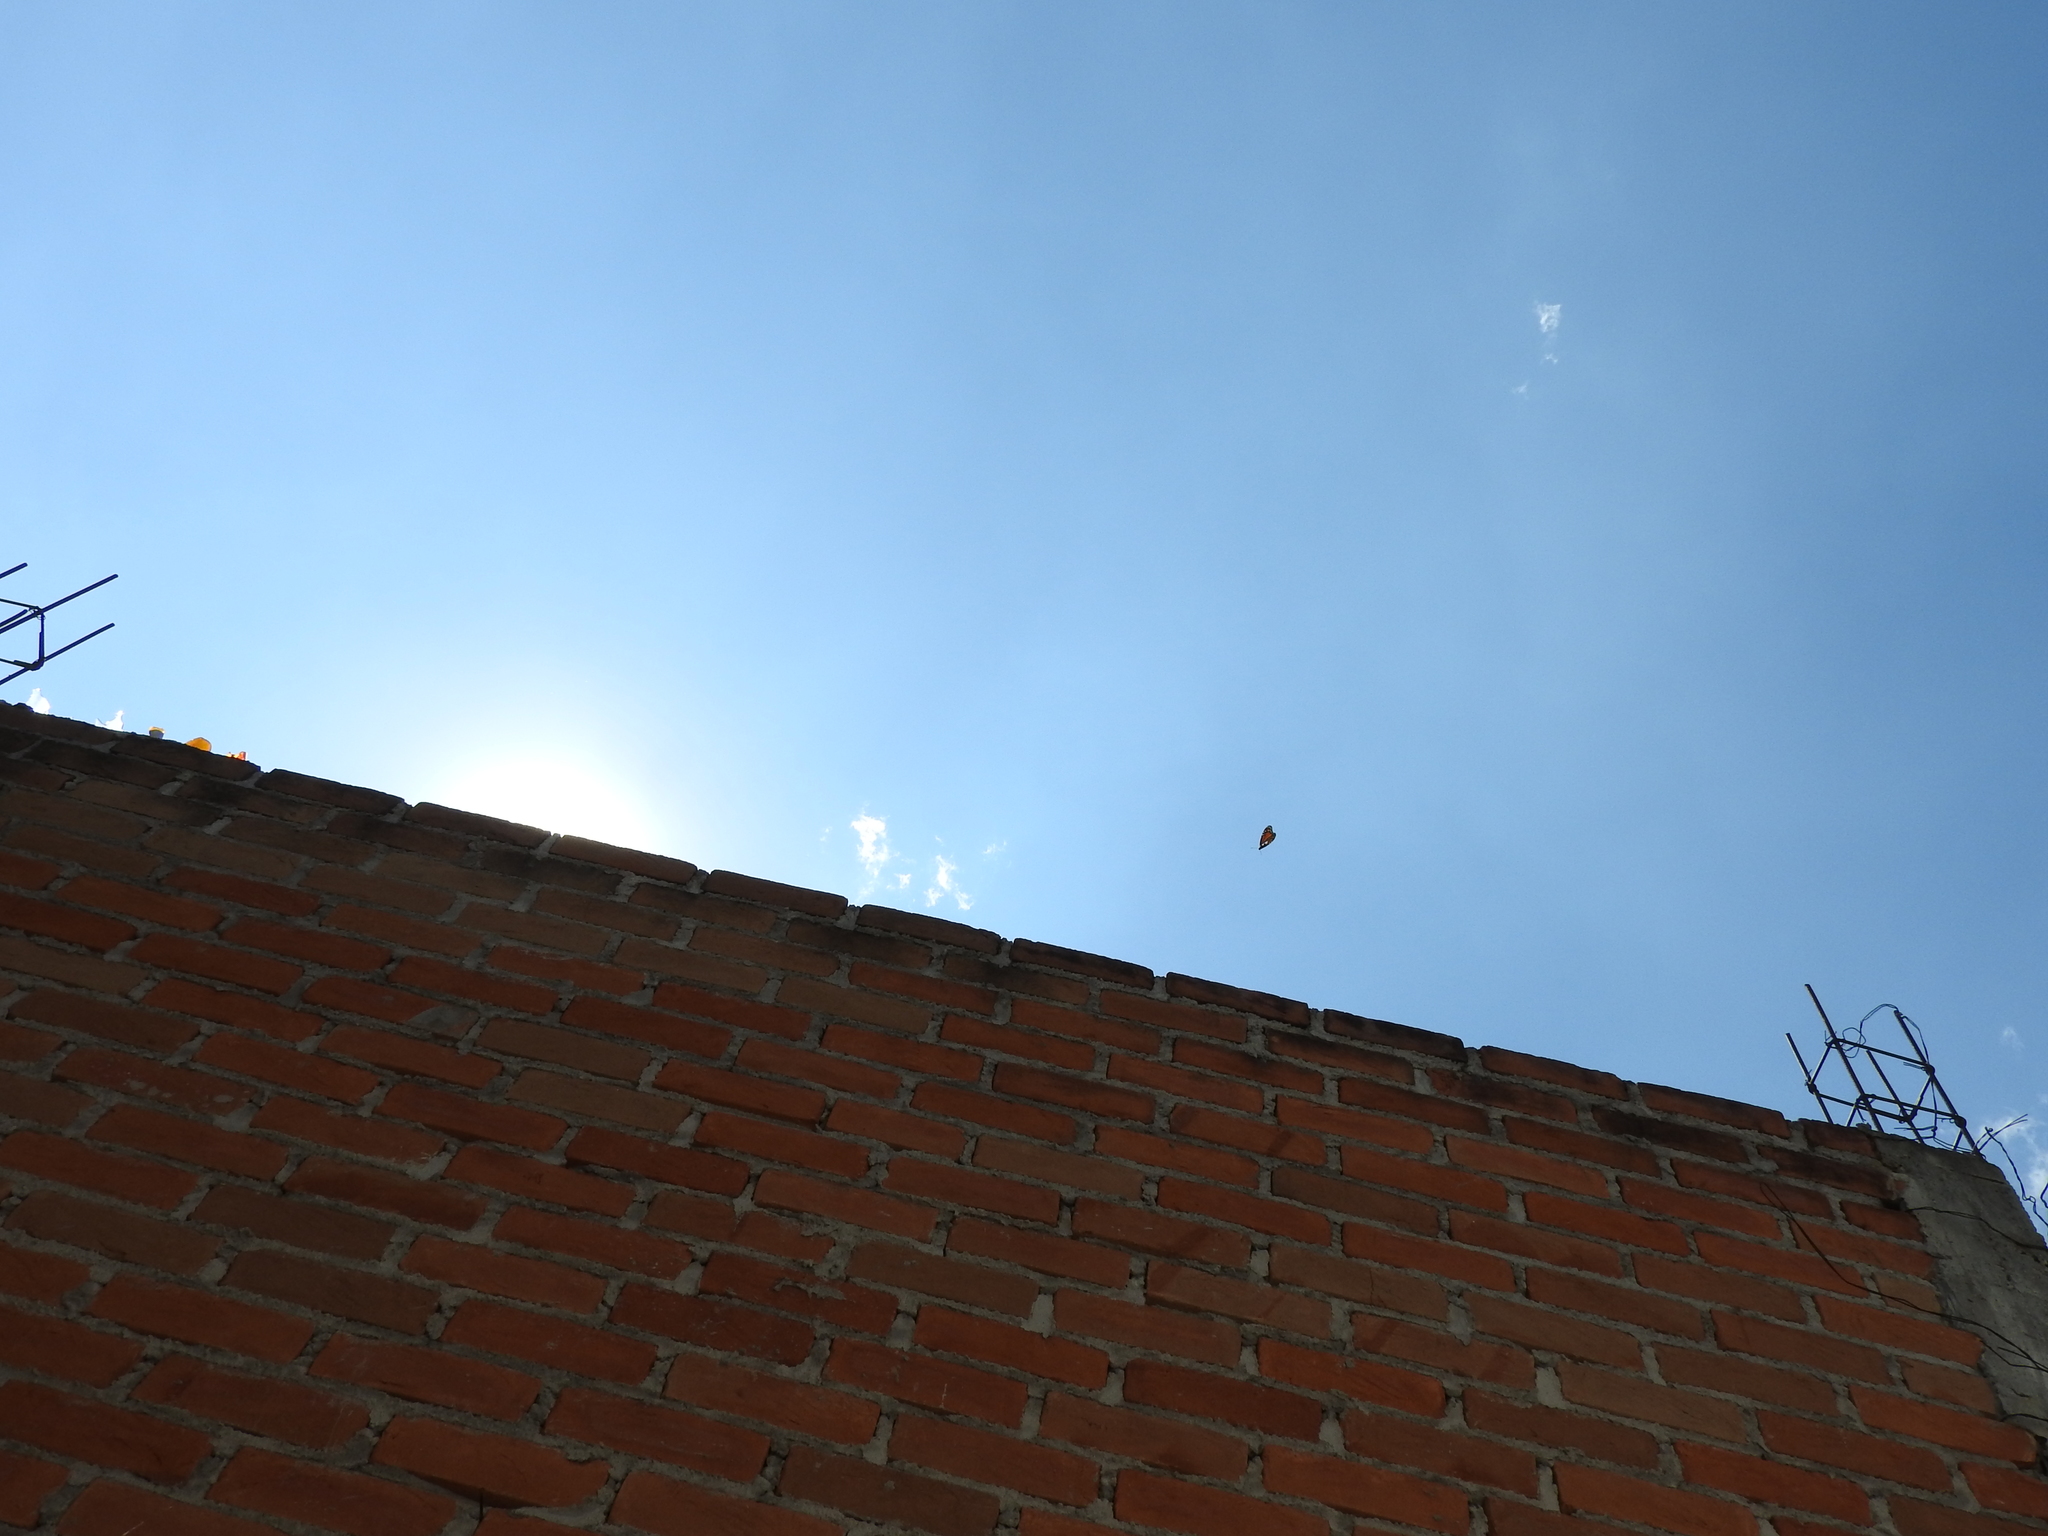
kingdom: Animalia
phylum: Arthropoda
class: Insecta
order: Lepidoptera
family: Nymphalidae
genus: Danaus
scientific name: Danaus plexippus
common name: Monarch
